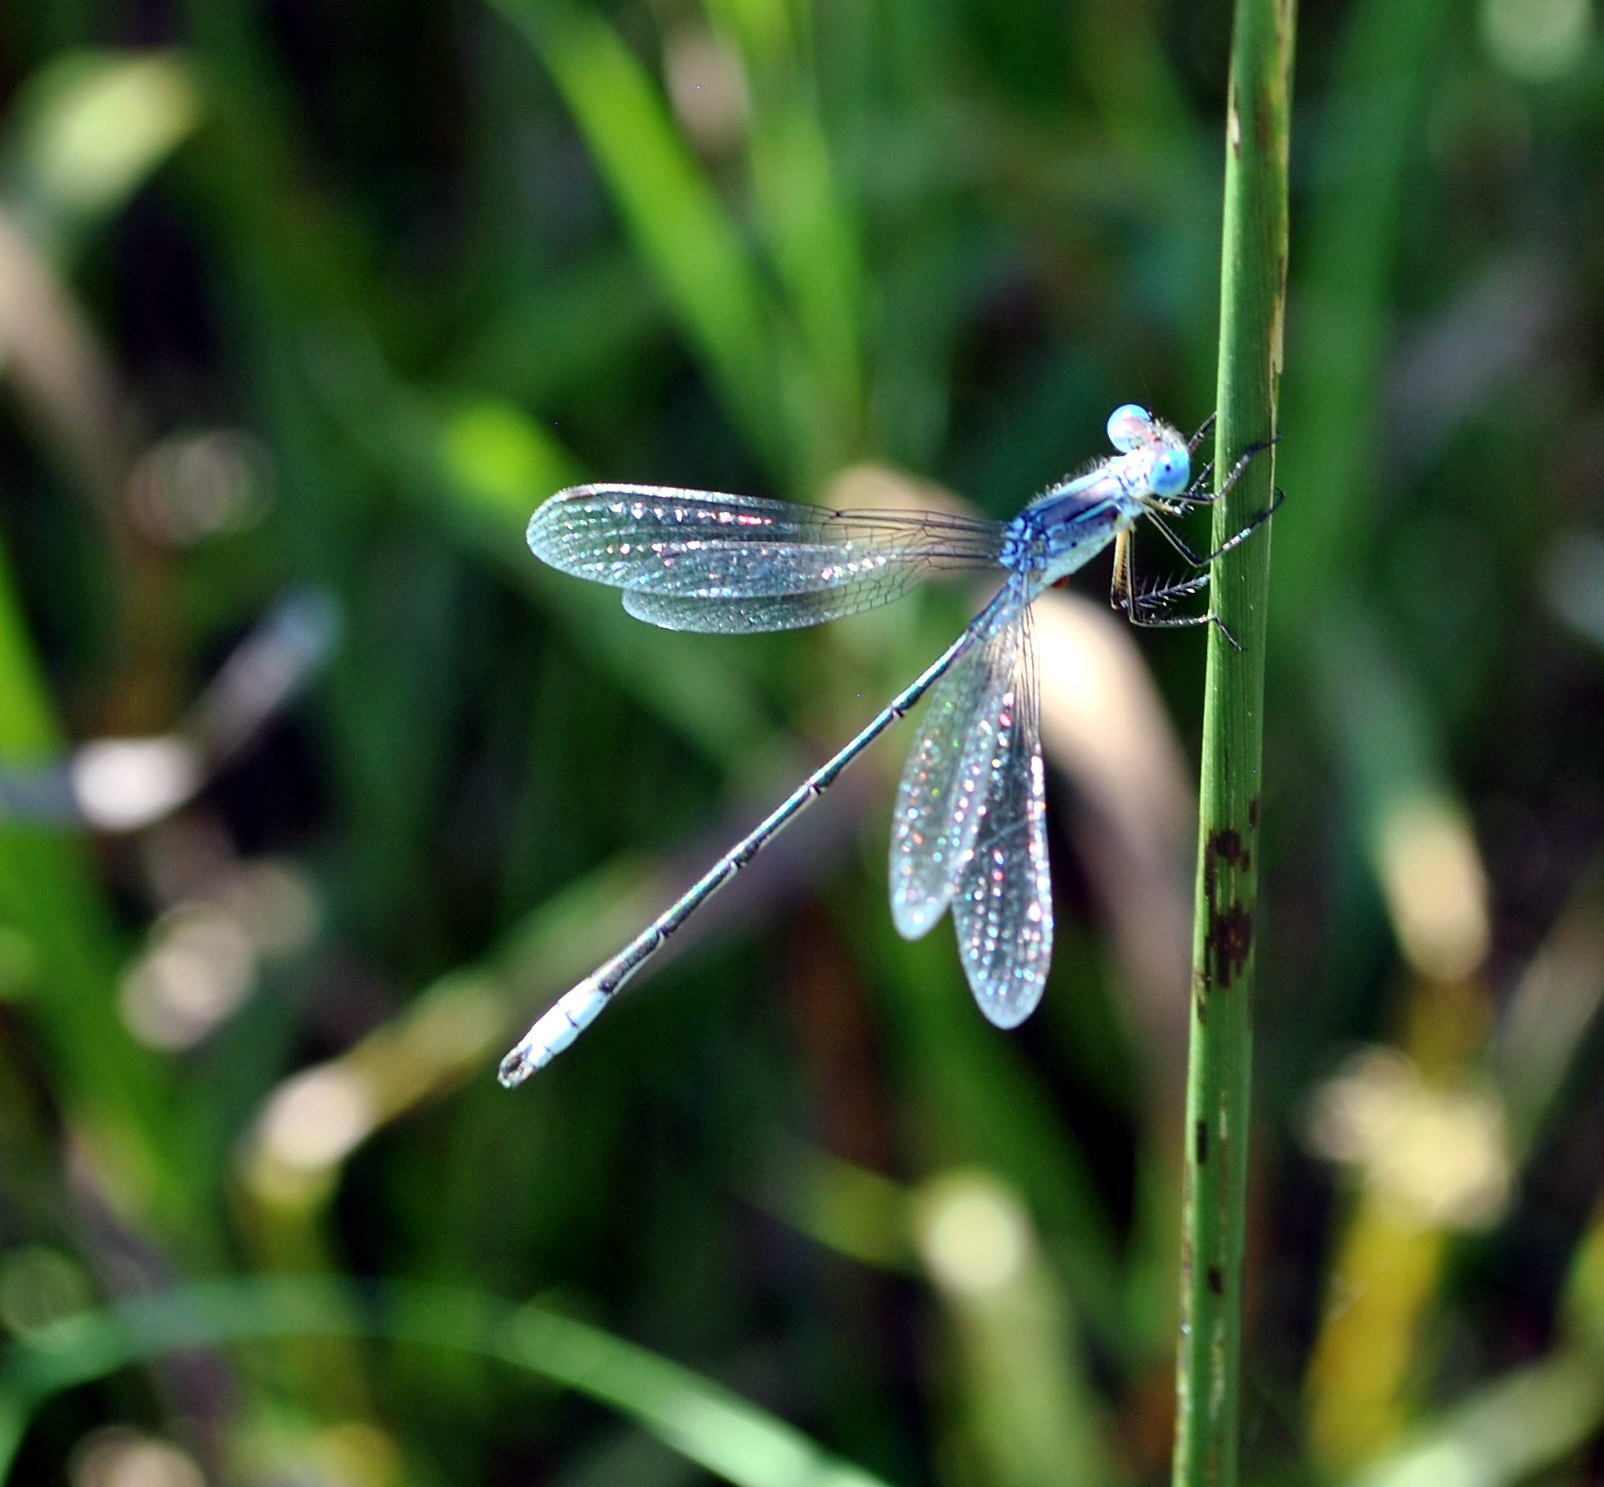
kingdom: Animalia
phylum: Arthropoda
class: Insecta
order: Odonata
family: Lestidae
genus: Lestes
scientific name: Lestes
